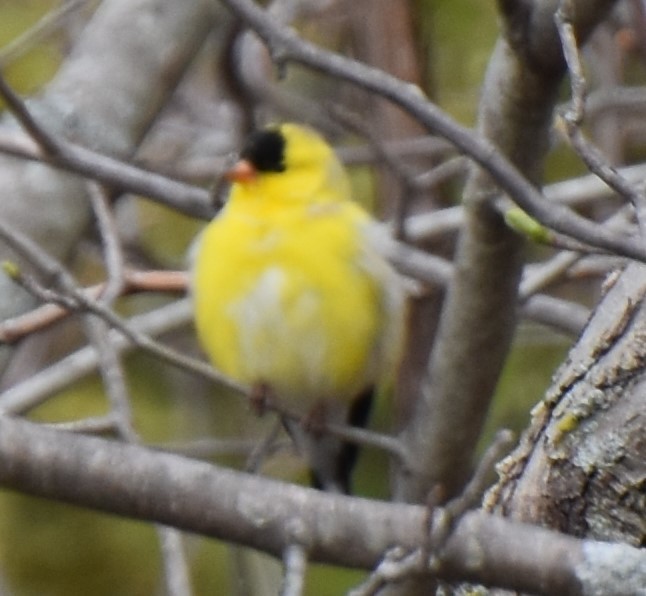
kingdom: Animalia
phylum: Chordata
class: Aves
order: Passeriformes
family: Fringillidae
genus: Spinus
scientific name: Spinus tristis
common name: American goldfinch
